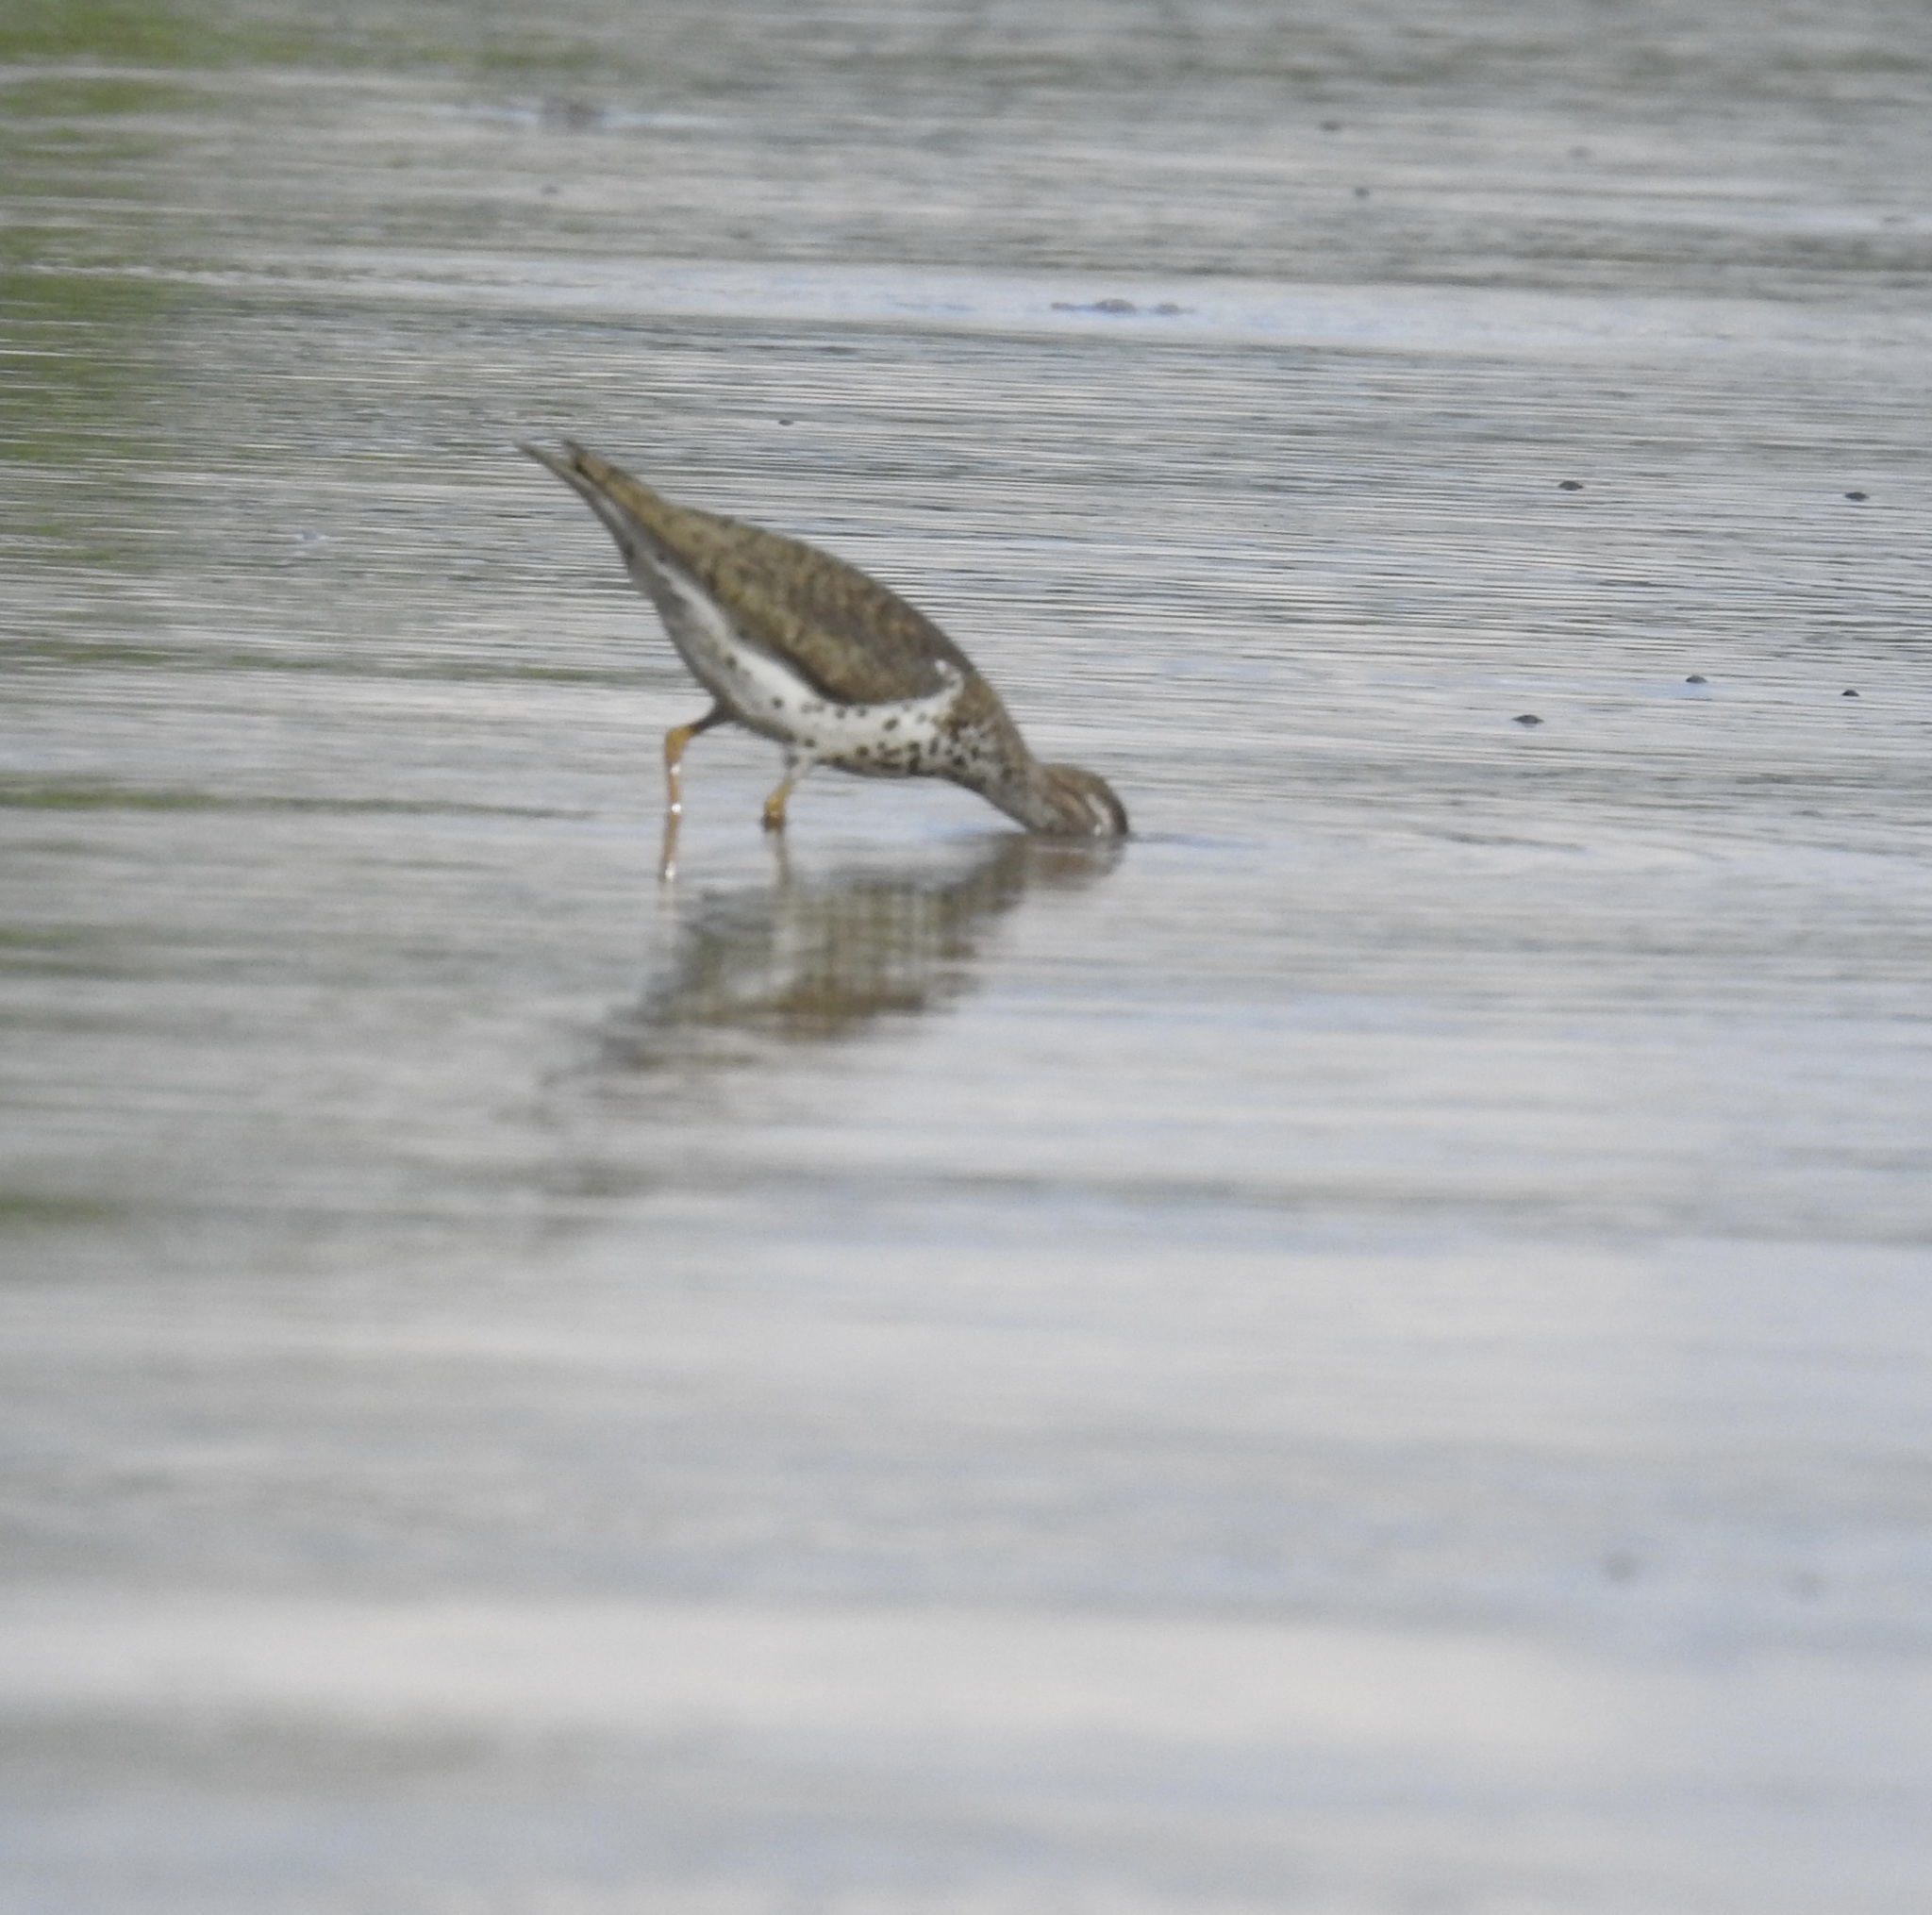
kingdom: Animalia
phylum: Chordata
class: Aves
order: Charadriiformes
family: Scolopacidae
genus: Actitis
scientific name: Actitis macularius
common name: Spotted sandpiper
